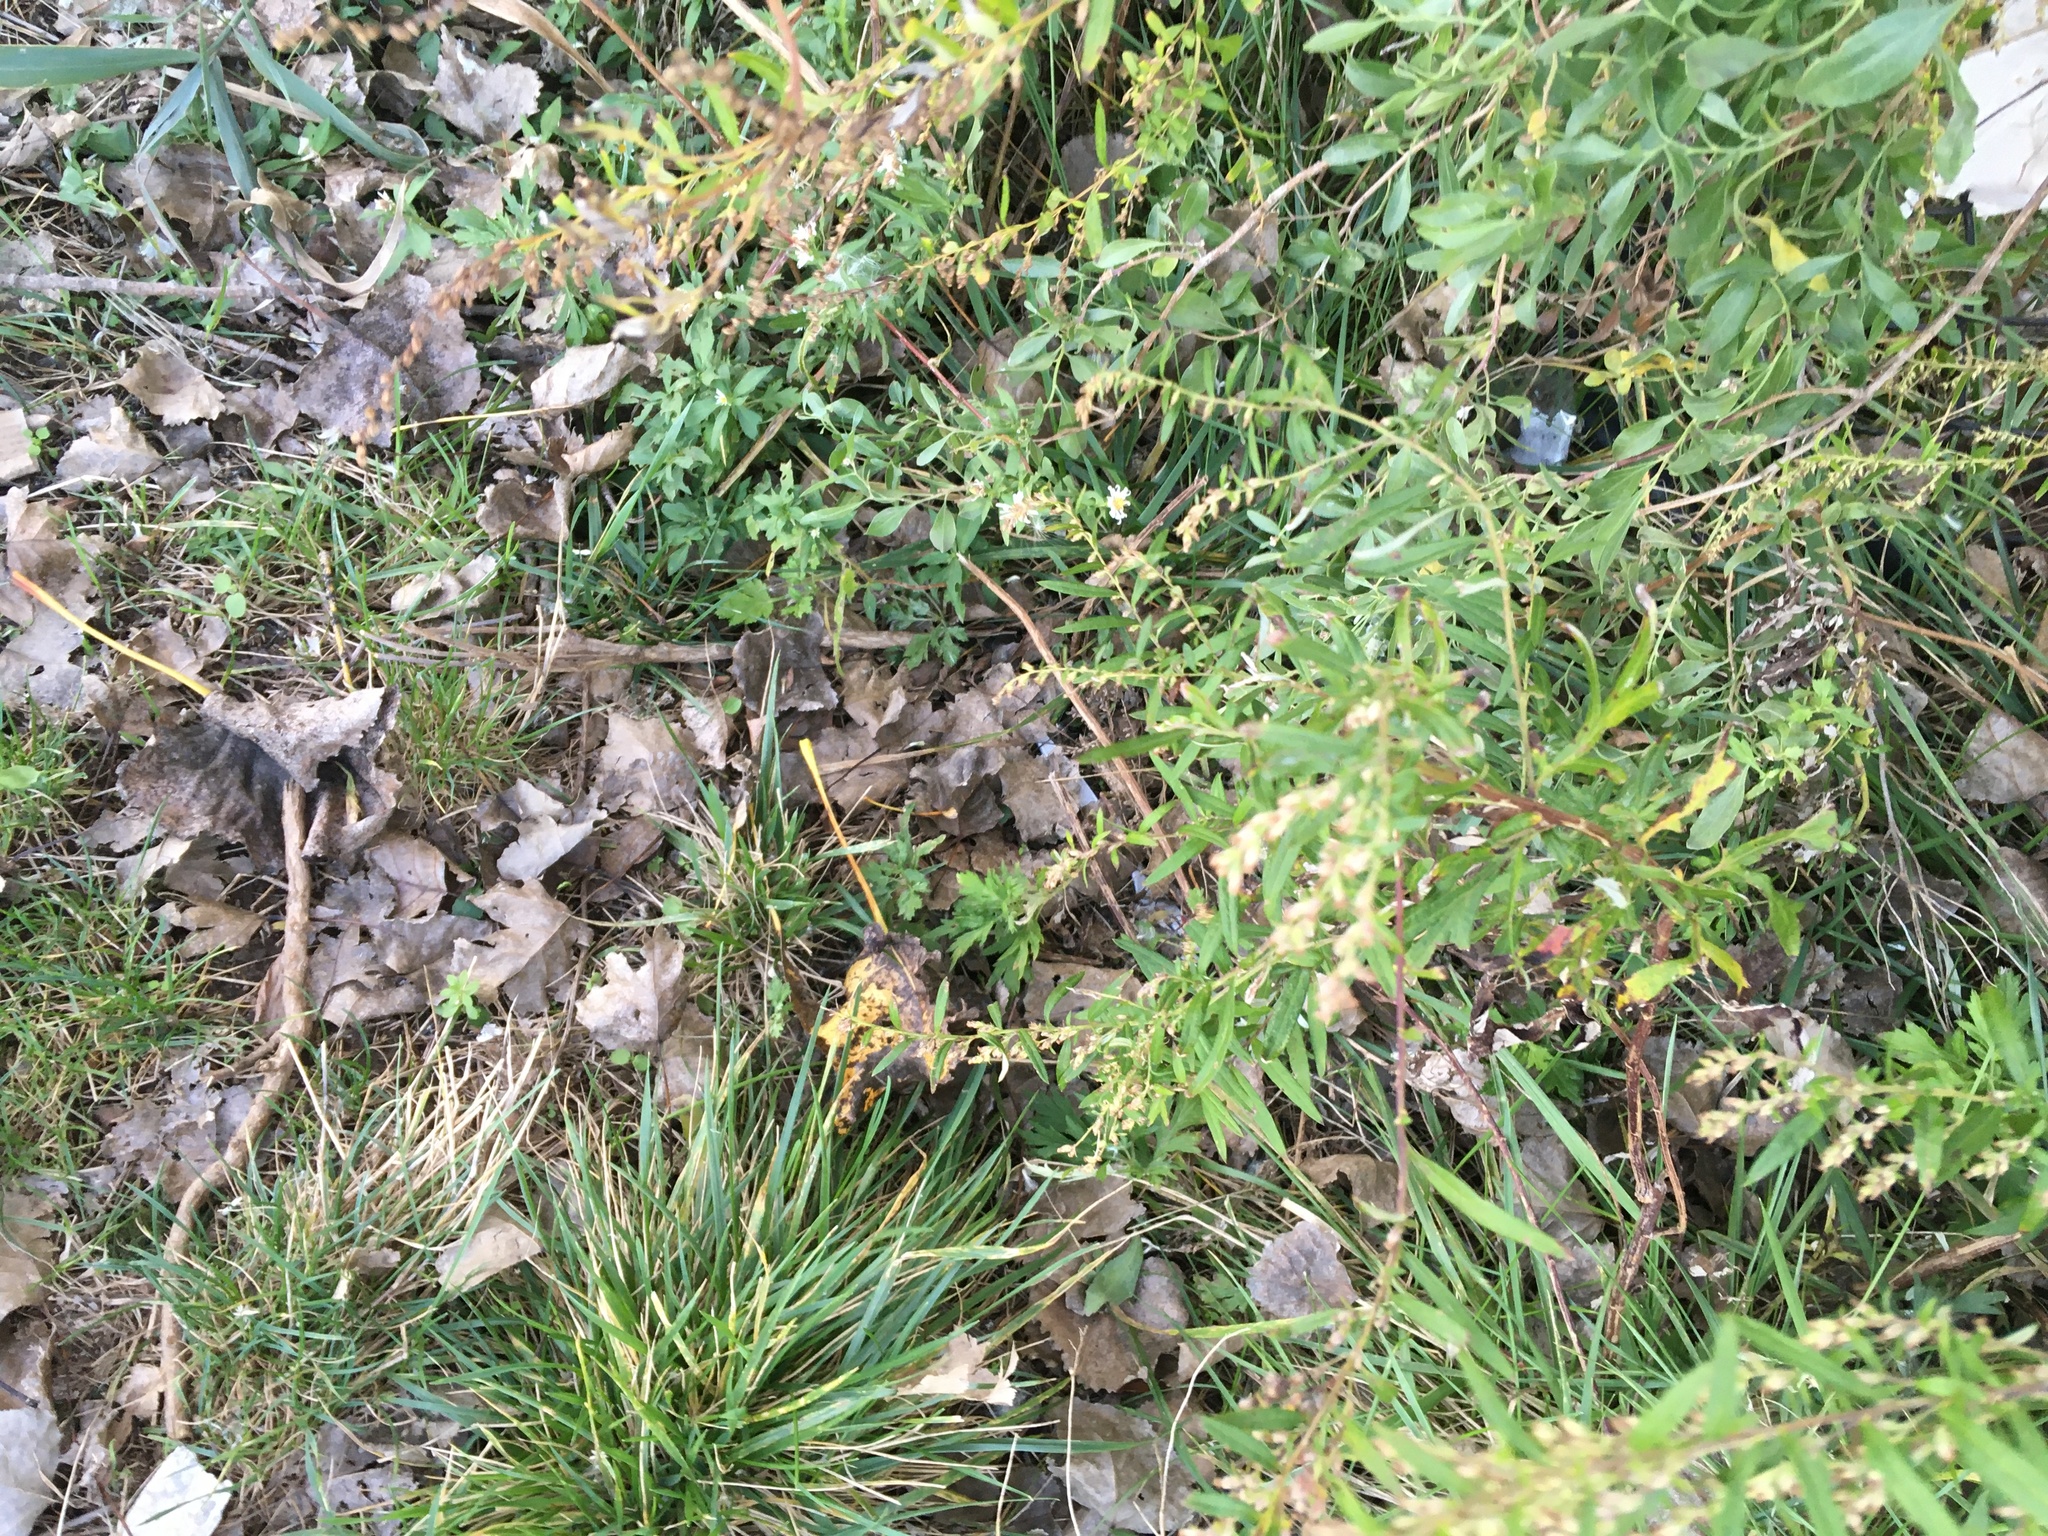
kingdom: Plantae
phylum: Tracheophyta
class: Magnoliopsida
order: Asterales
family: Asteraceae
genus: Artemisia
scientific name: Artemisia vulgaris
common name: Mugwort
